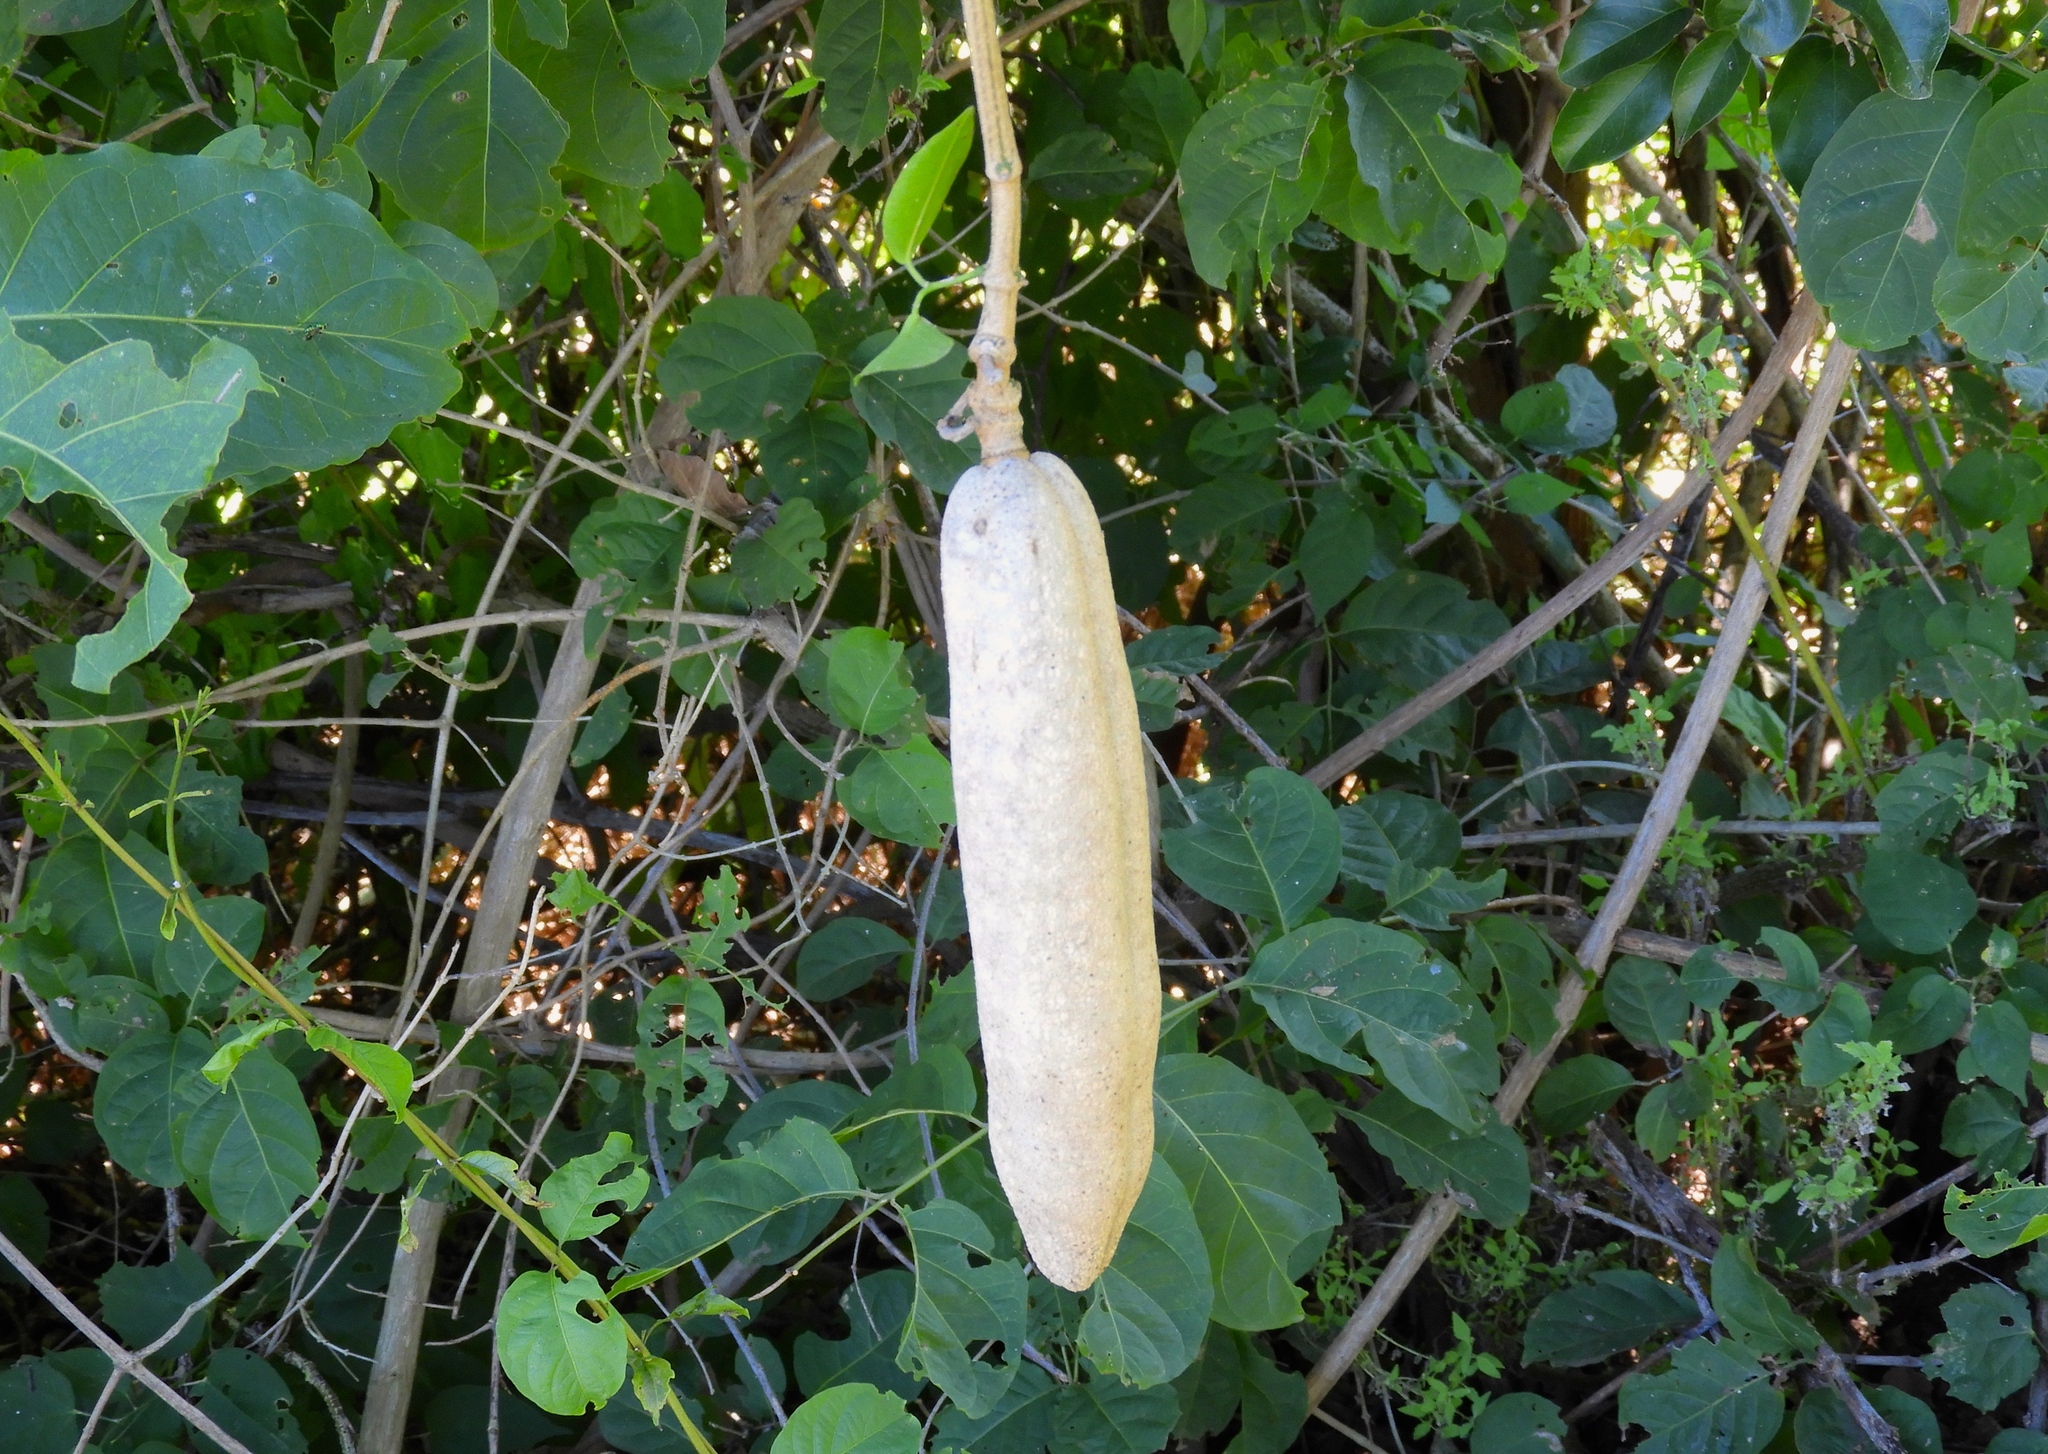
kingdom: Plantae
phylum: Tracheophyta
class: Magnoliopsida
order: Lamiales
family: Bignoniaceae
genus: Adenocalymma
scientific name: Adenocalymma inundatum
